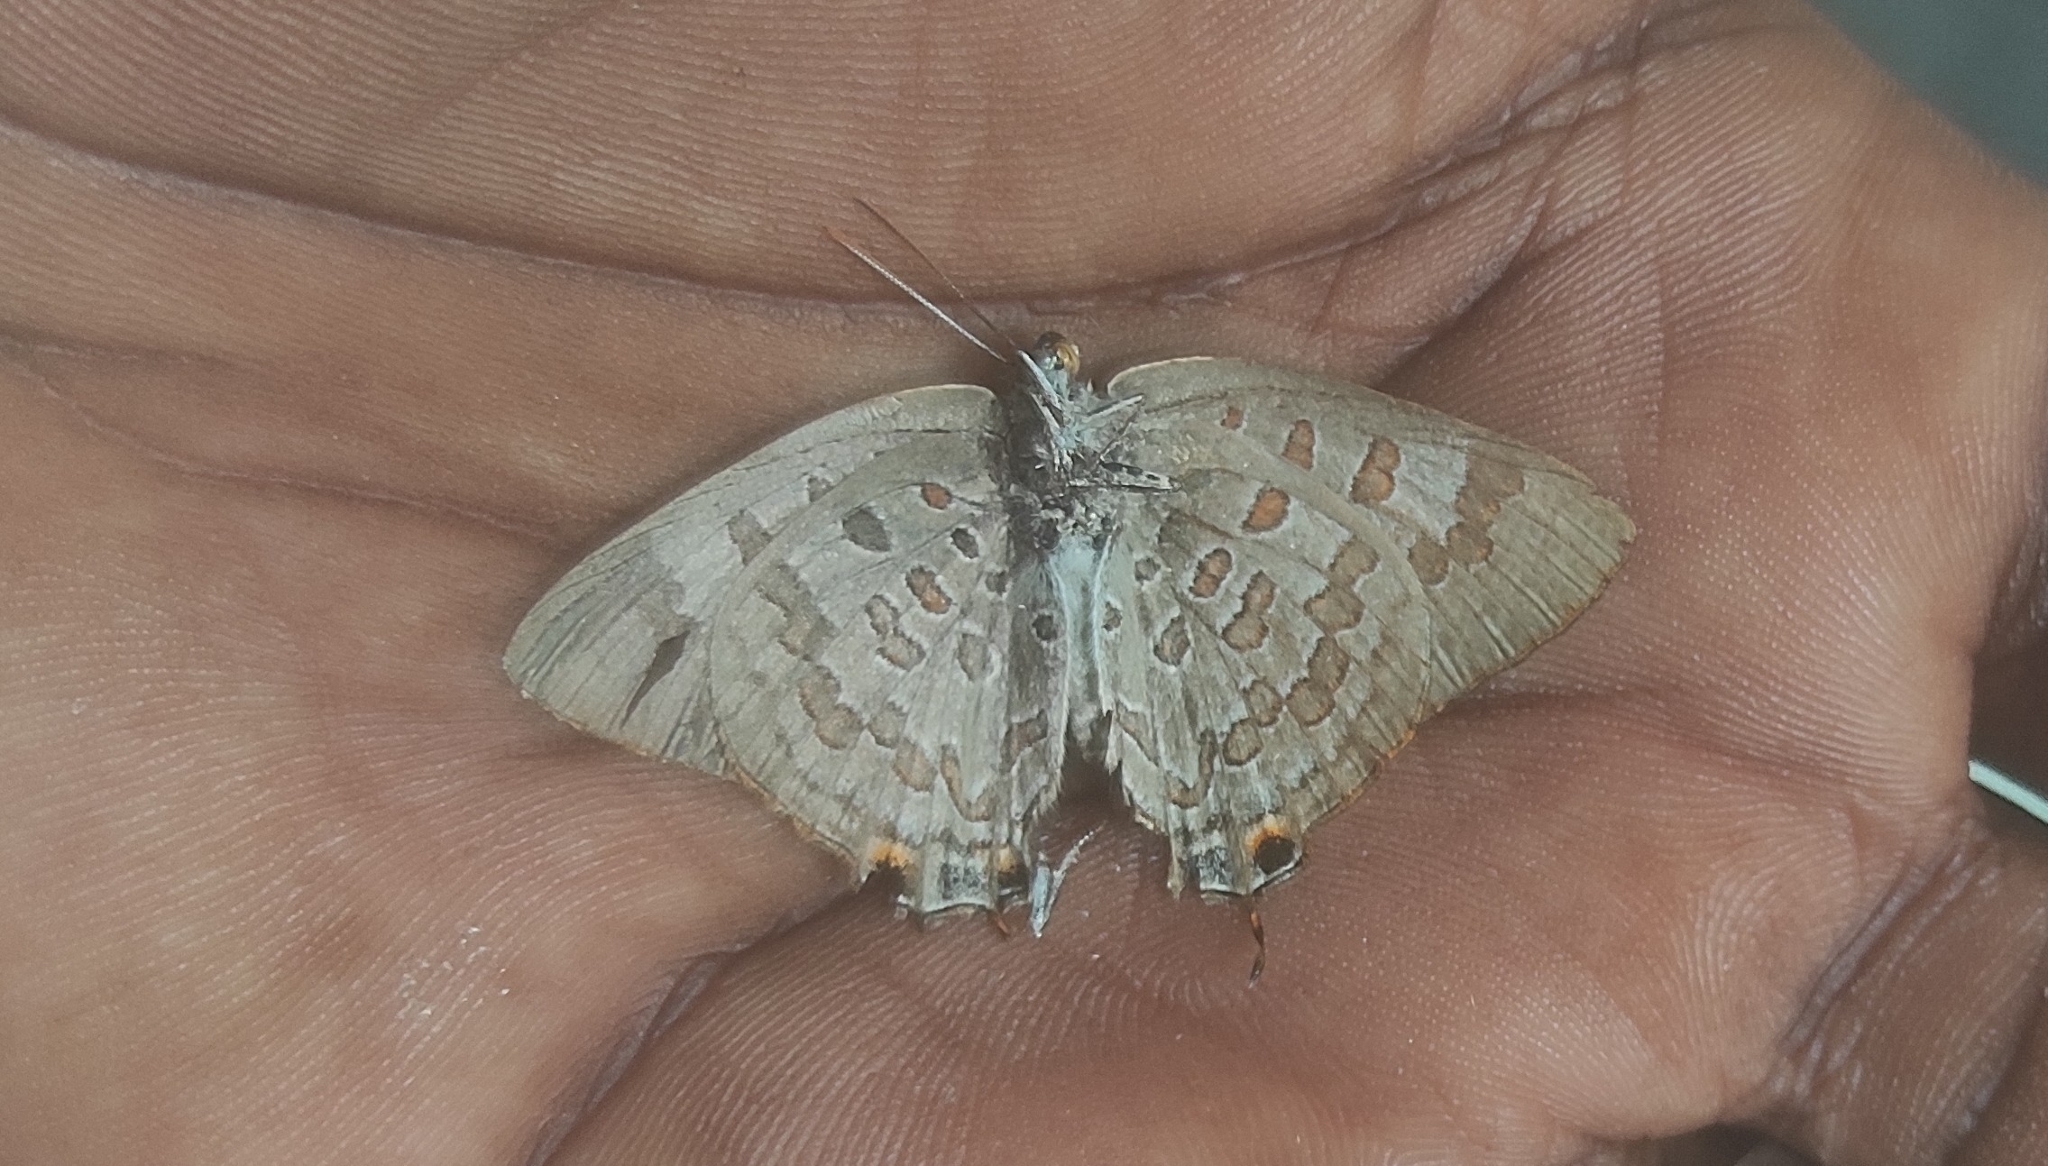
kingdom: Animalia
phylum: Arthropoda
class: Insecta
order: Lepidoptera
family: Lycaenidae
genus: Zesius
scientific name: Zesius chrysomallus
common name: Redspot
